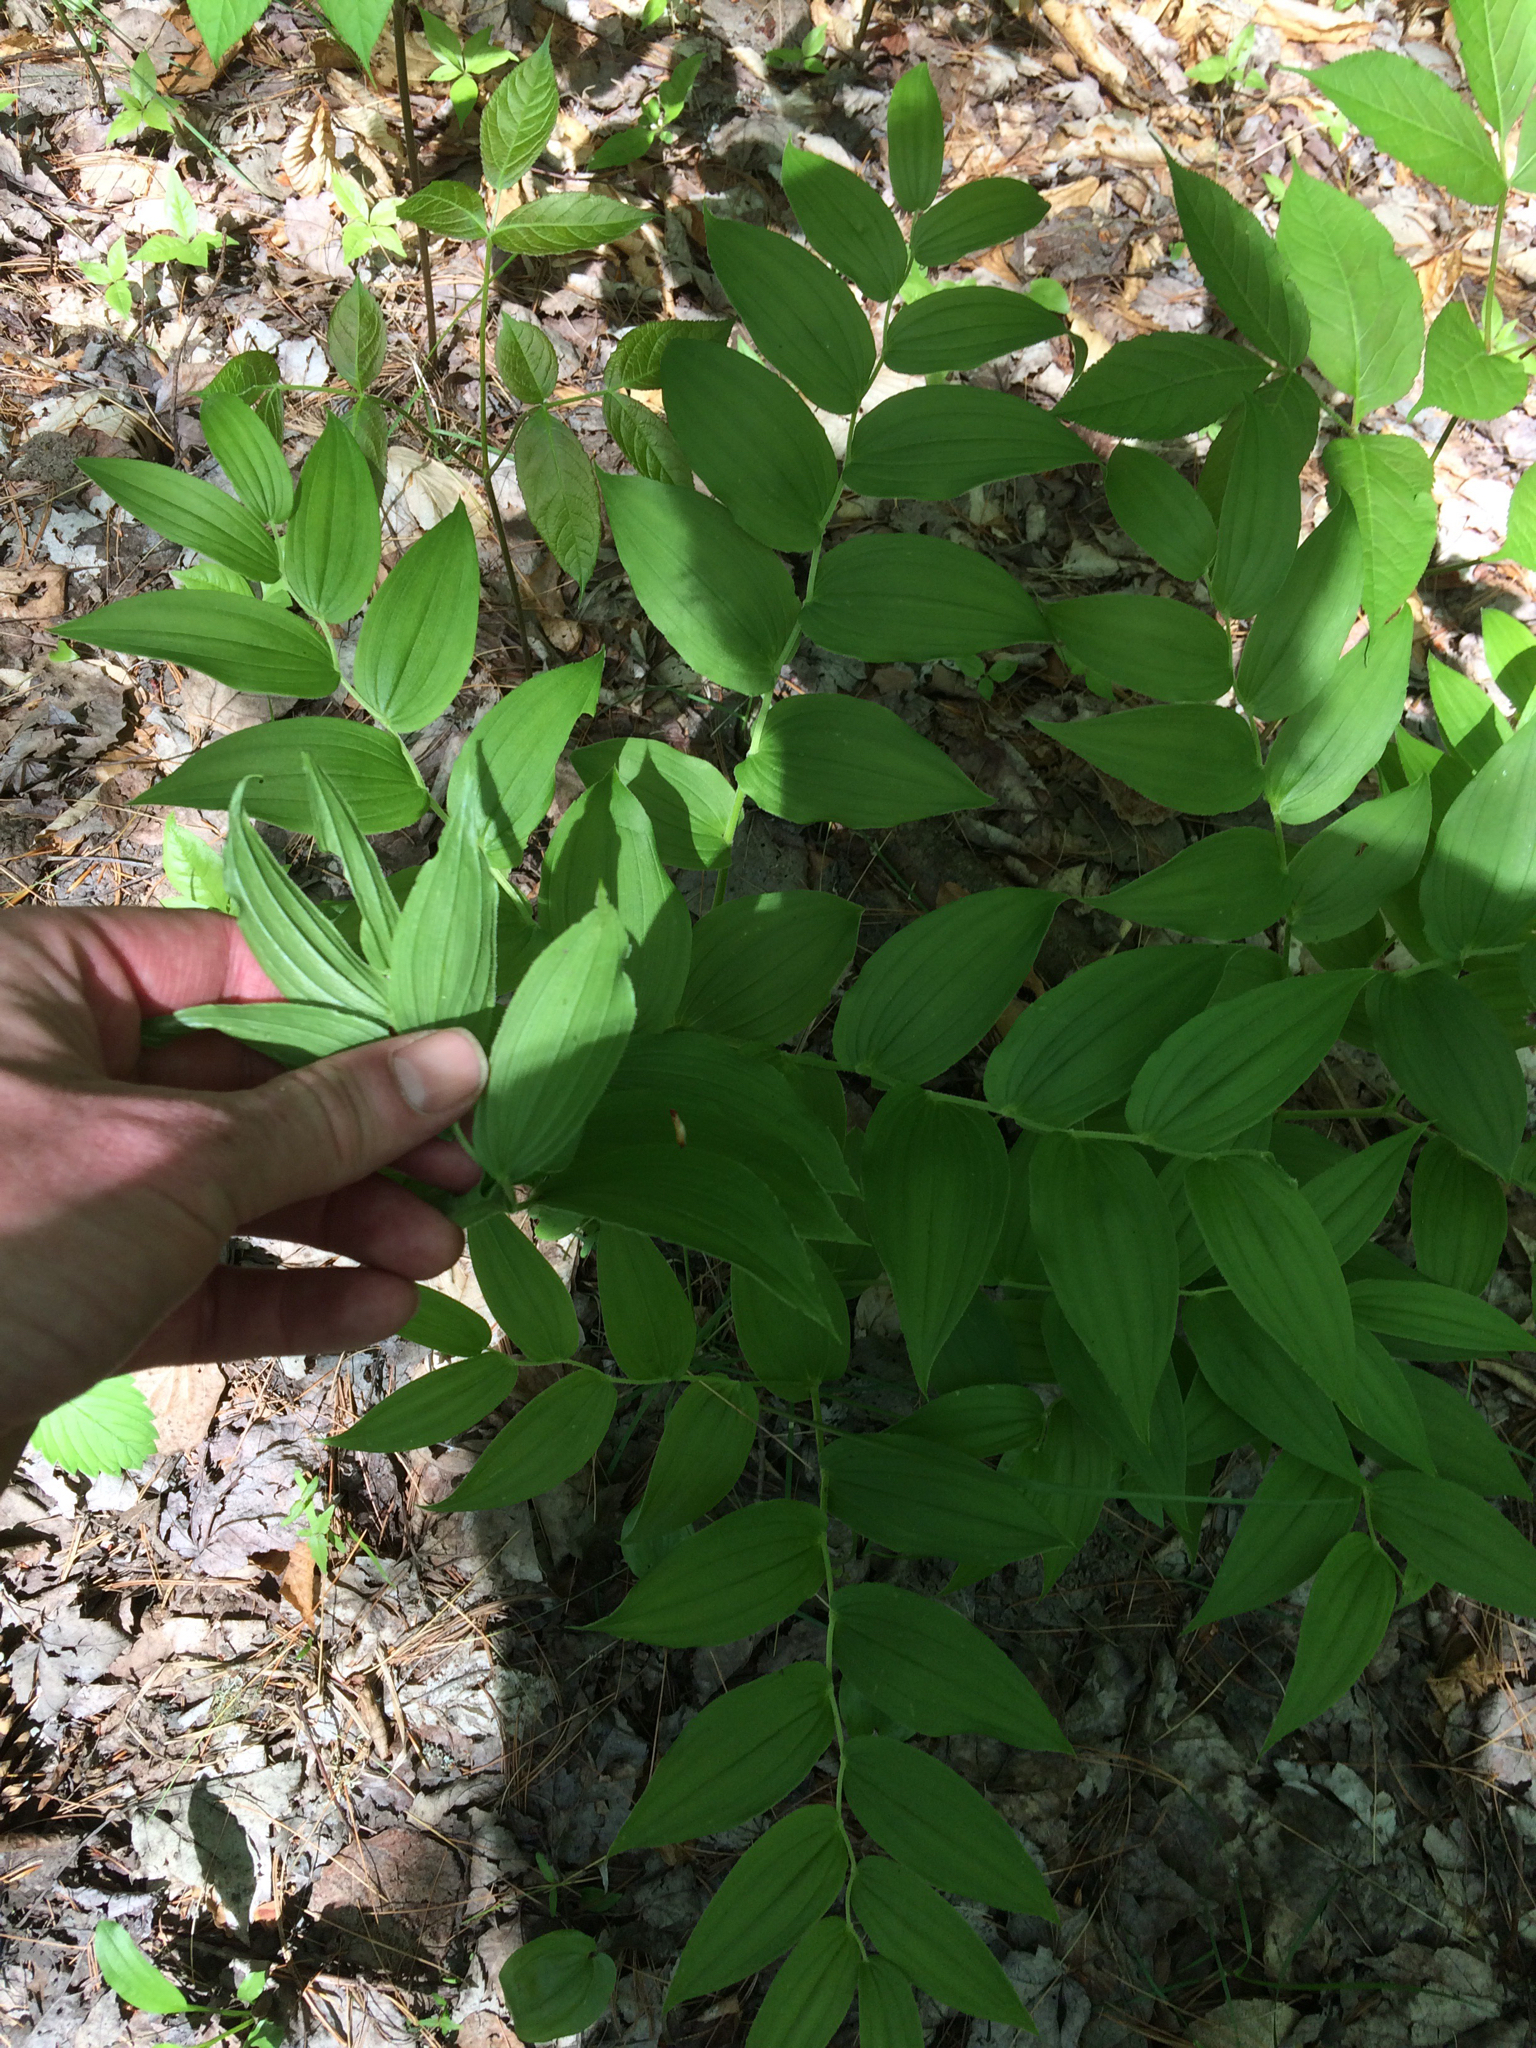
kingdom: Plantae
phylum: Tracheophyta
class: Liliopsida
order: Liliales
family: Liliaceae
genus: Streptopus
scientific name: Streptopus lanceolatus
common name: Rose mandarin
